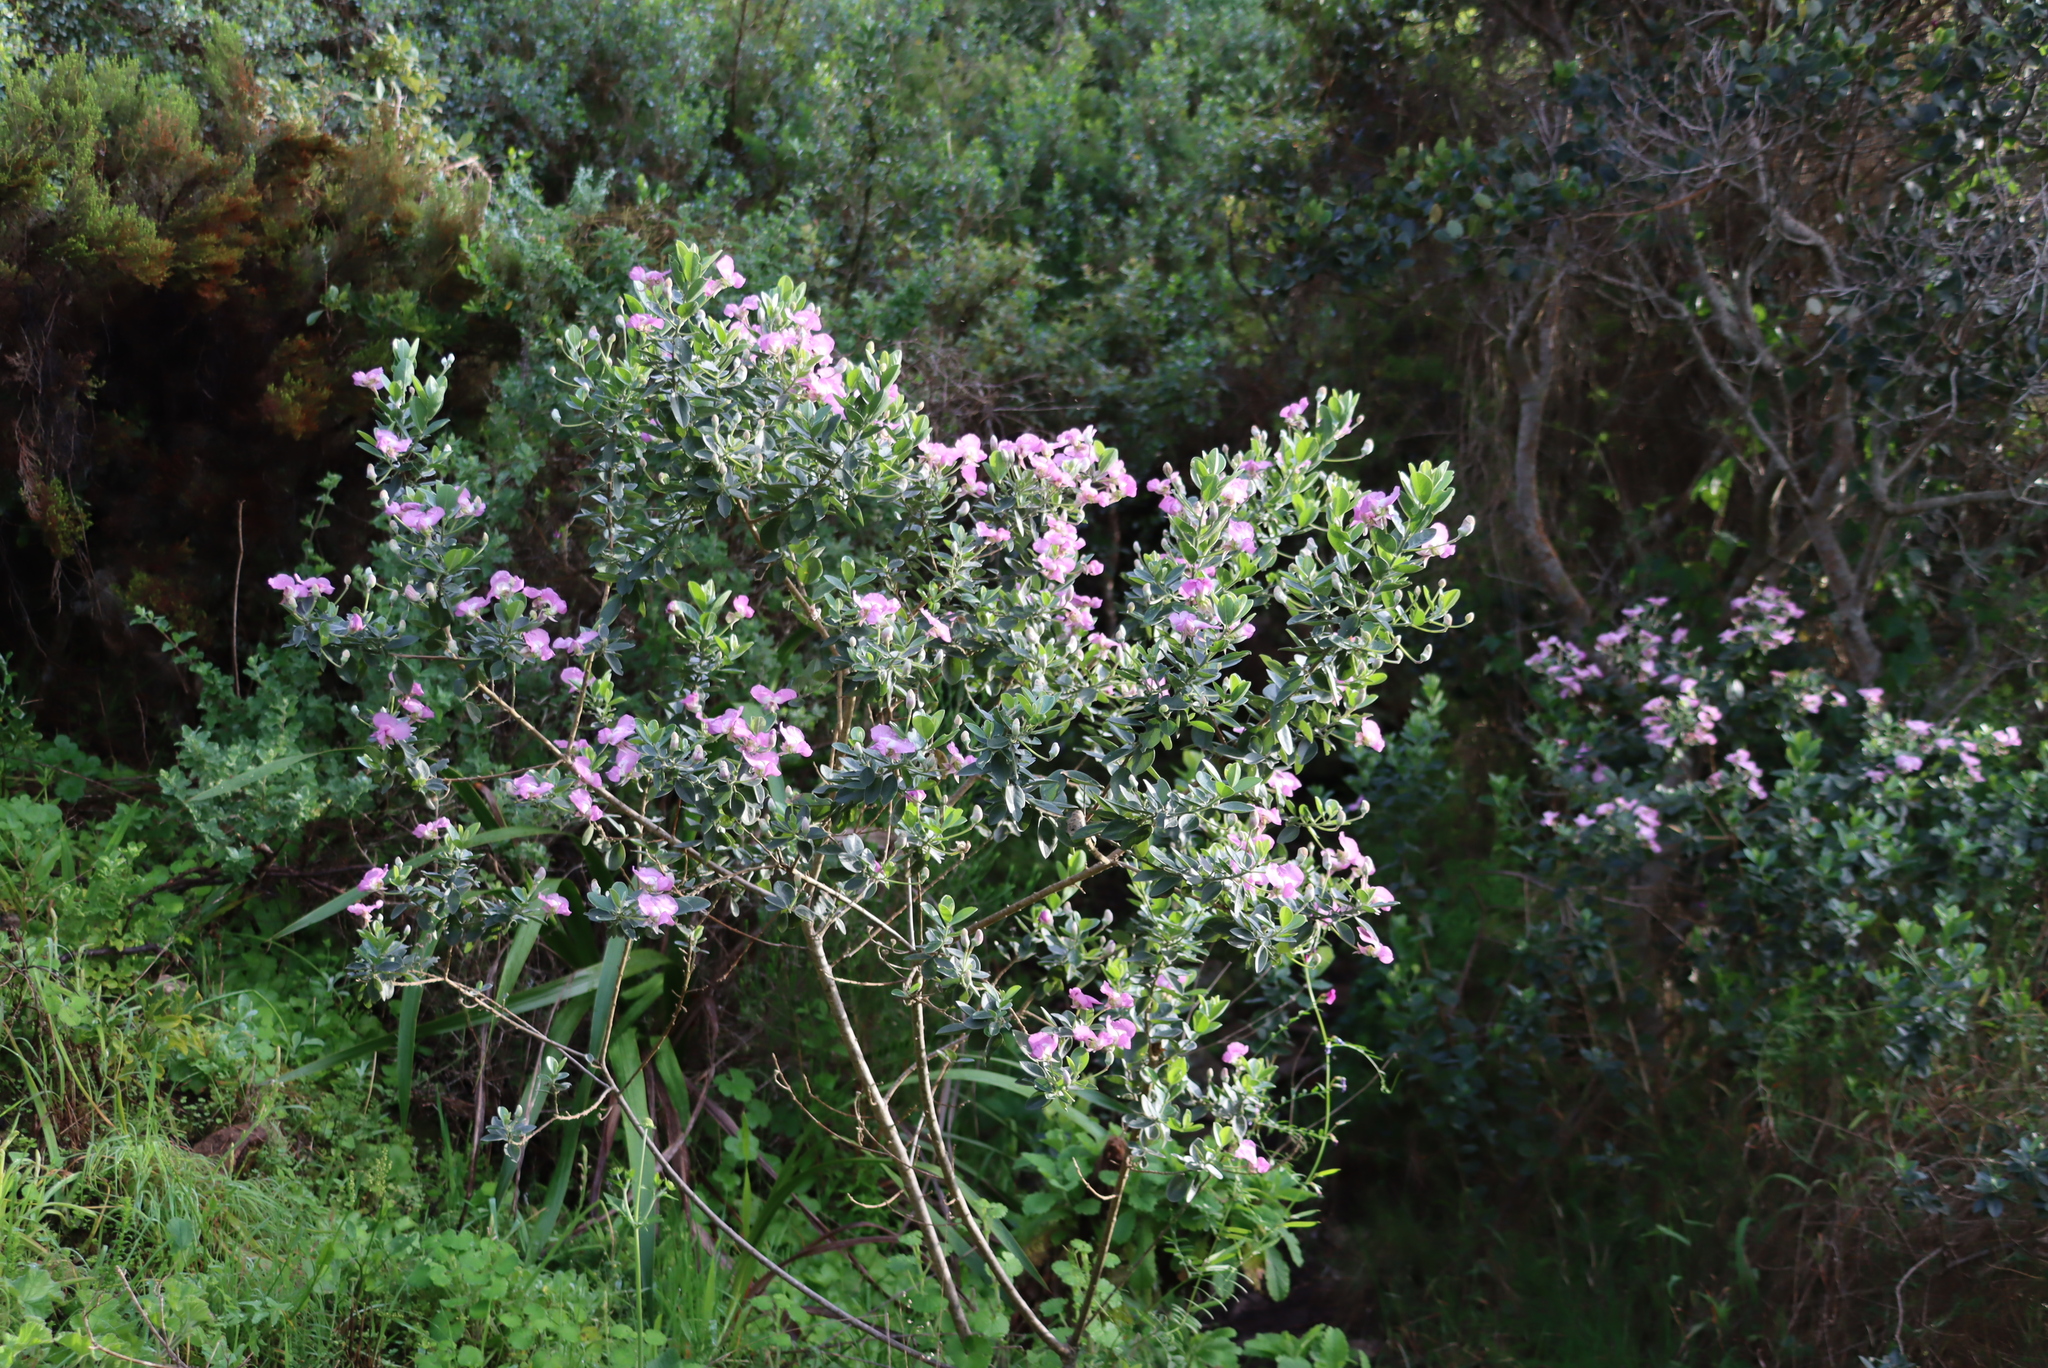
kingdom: Plantae
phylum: Tracheophyta
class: Magnoliopsida
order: Fabales
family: Fabaceae
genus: Podalyria
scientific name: Podalyria calyptrata
